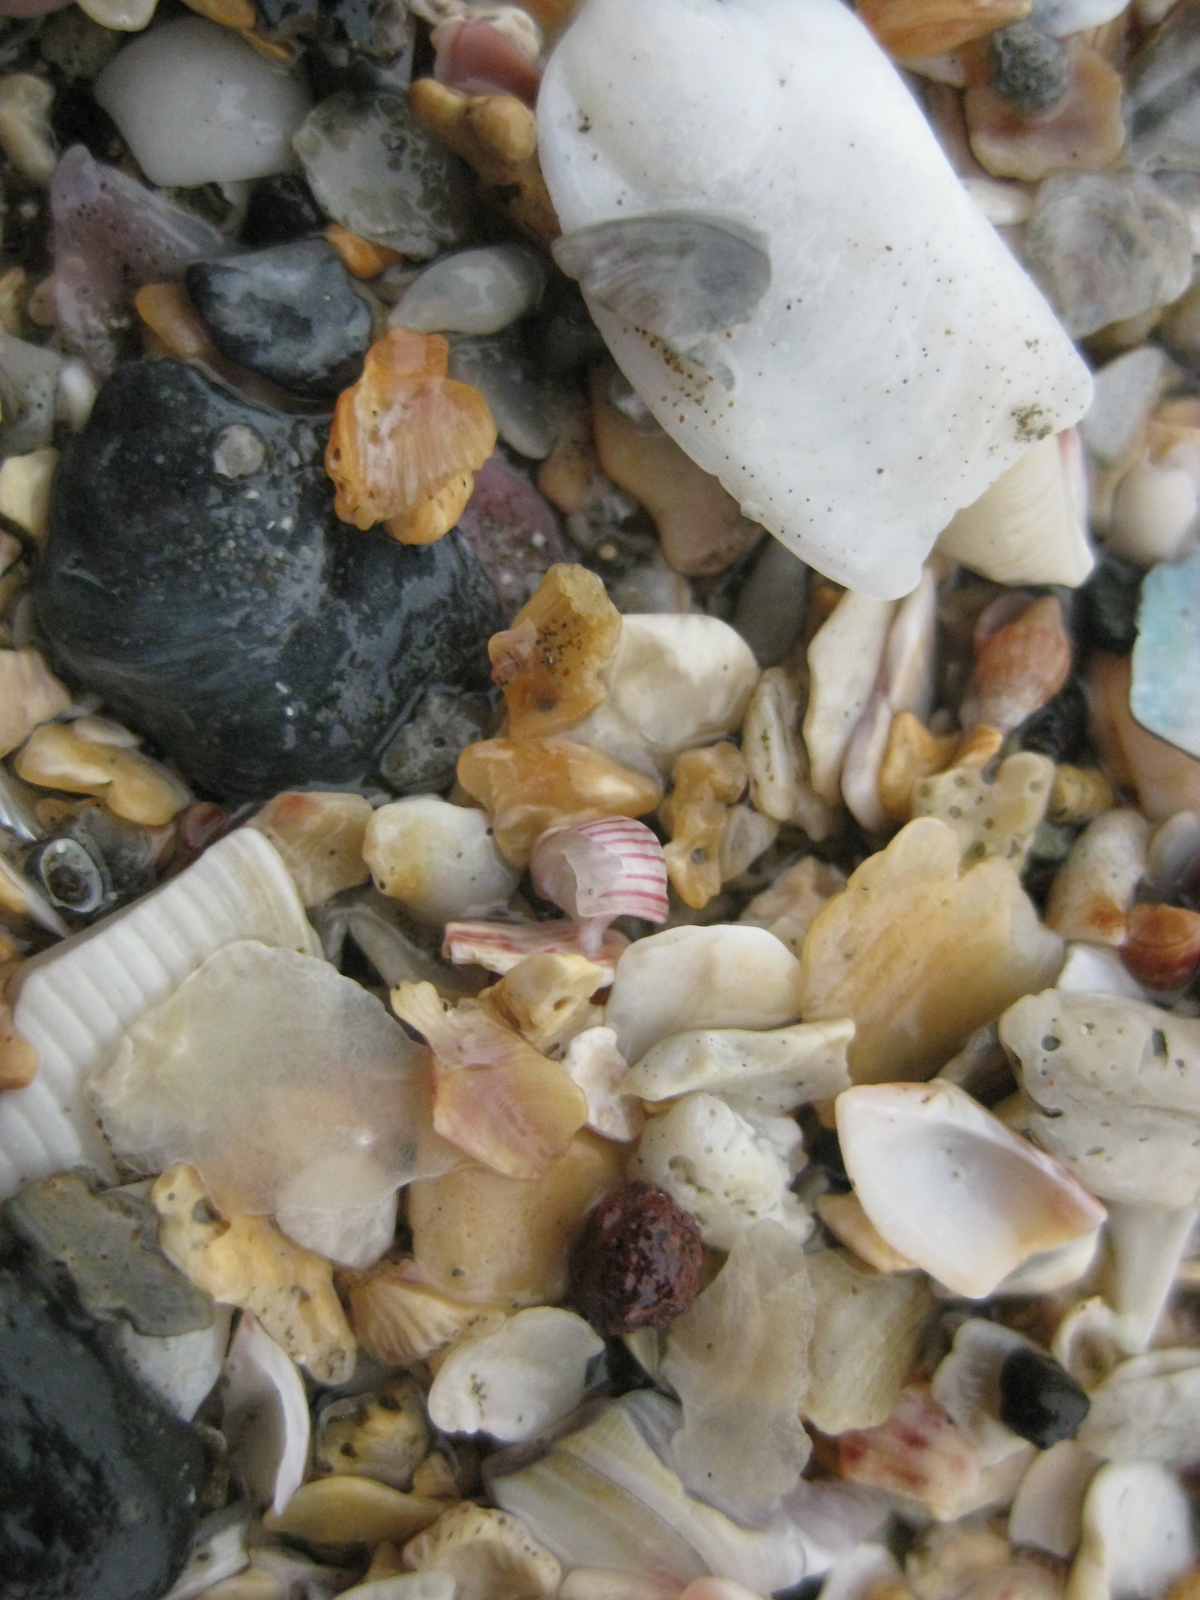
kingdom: Animalia
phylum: Mollusca
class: Gastropoda
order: Trochida
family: Trochidae
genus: Roseaplagis
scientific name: Roseaplagis rufozona
